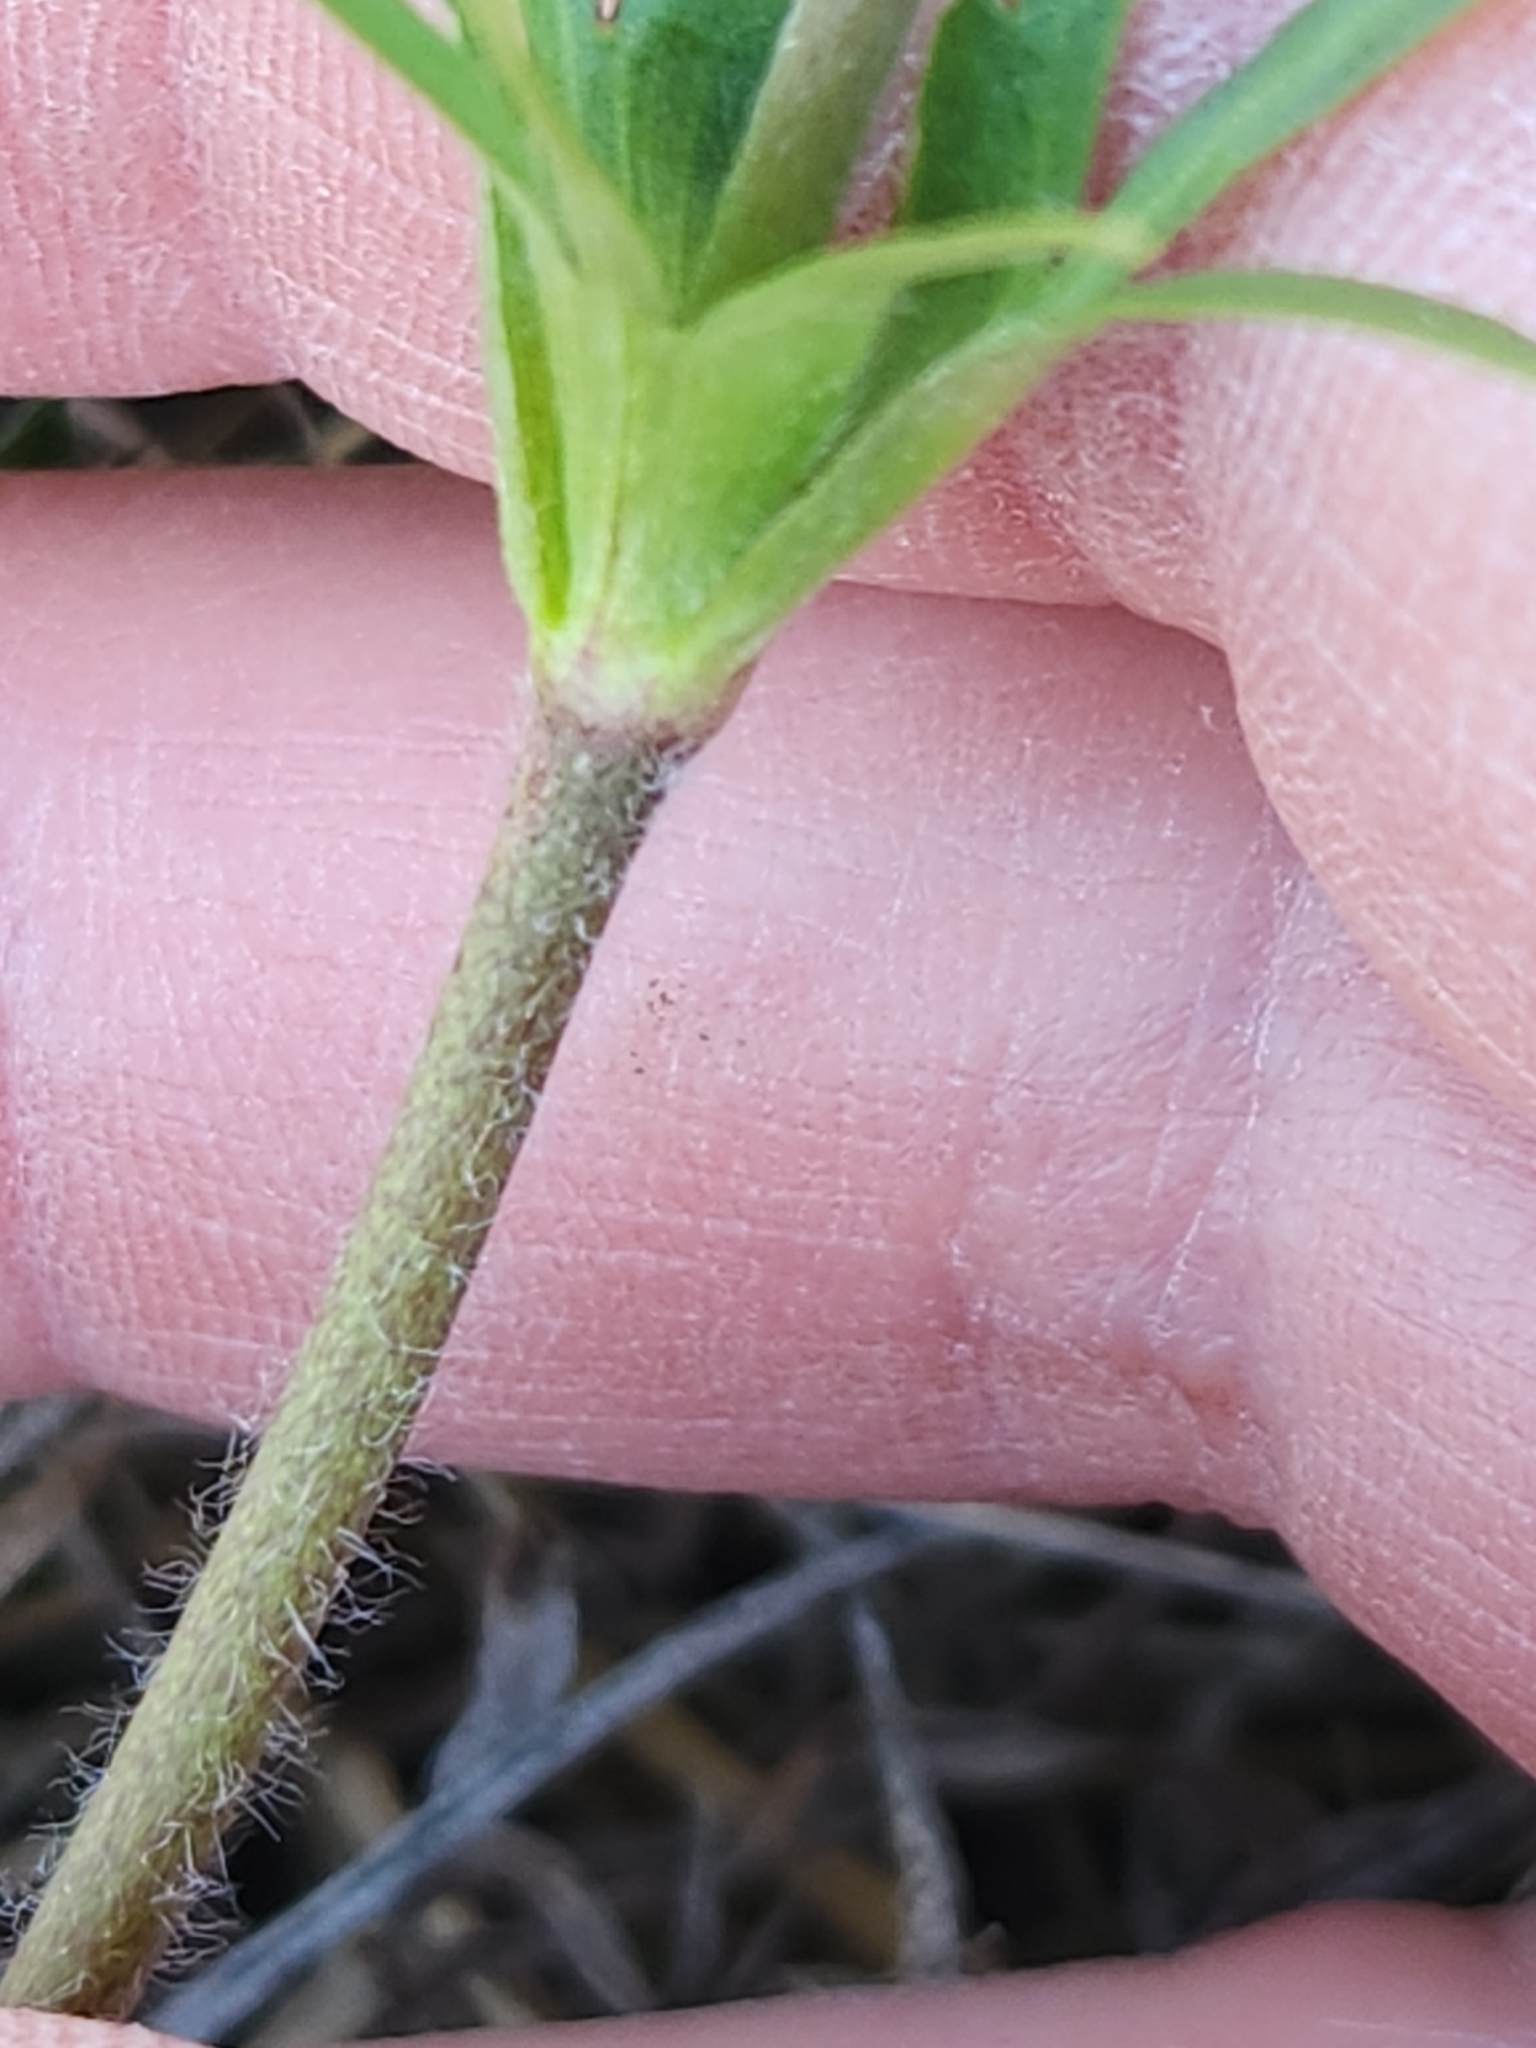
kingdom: Plantae
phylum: Tracheophyta
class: Magnoliopsida
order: Ranunculales
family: Ranunculaceae
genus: Anemone
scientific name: Anemone berlandieri
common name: Ten-petal anemone
